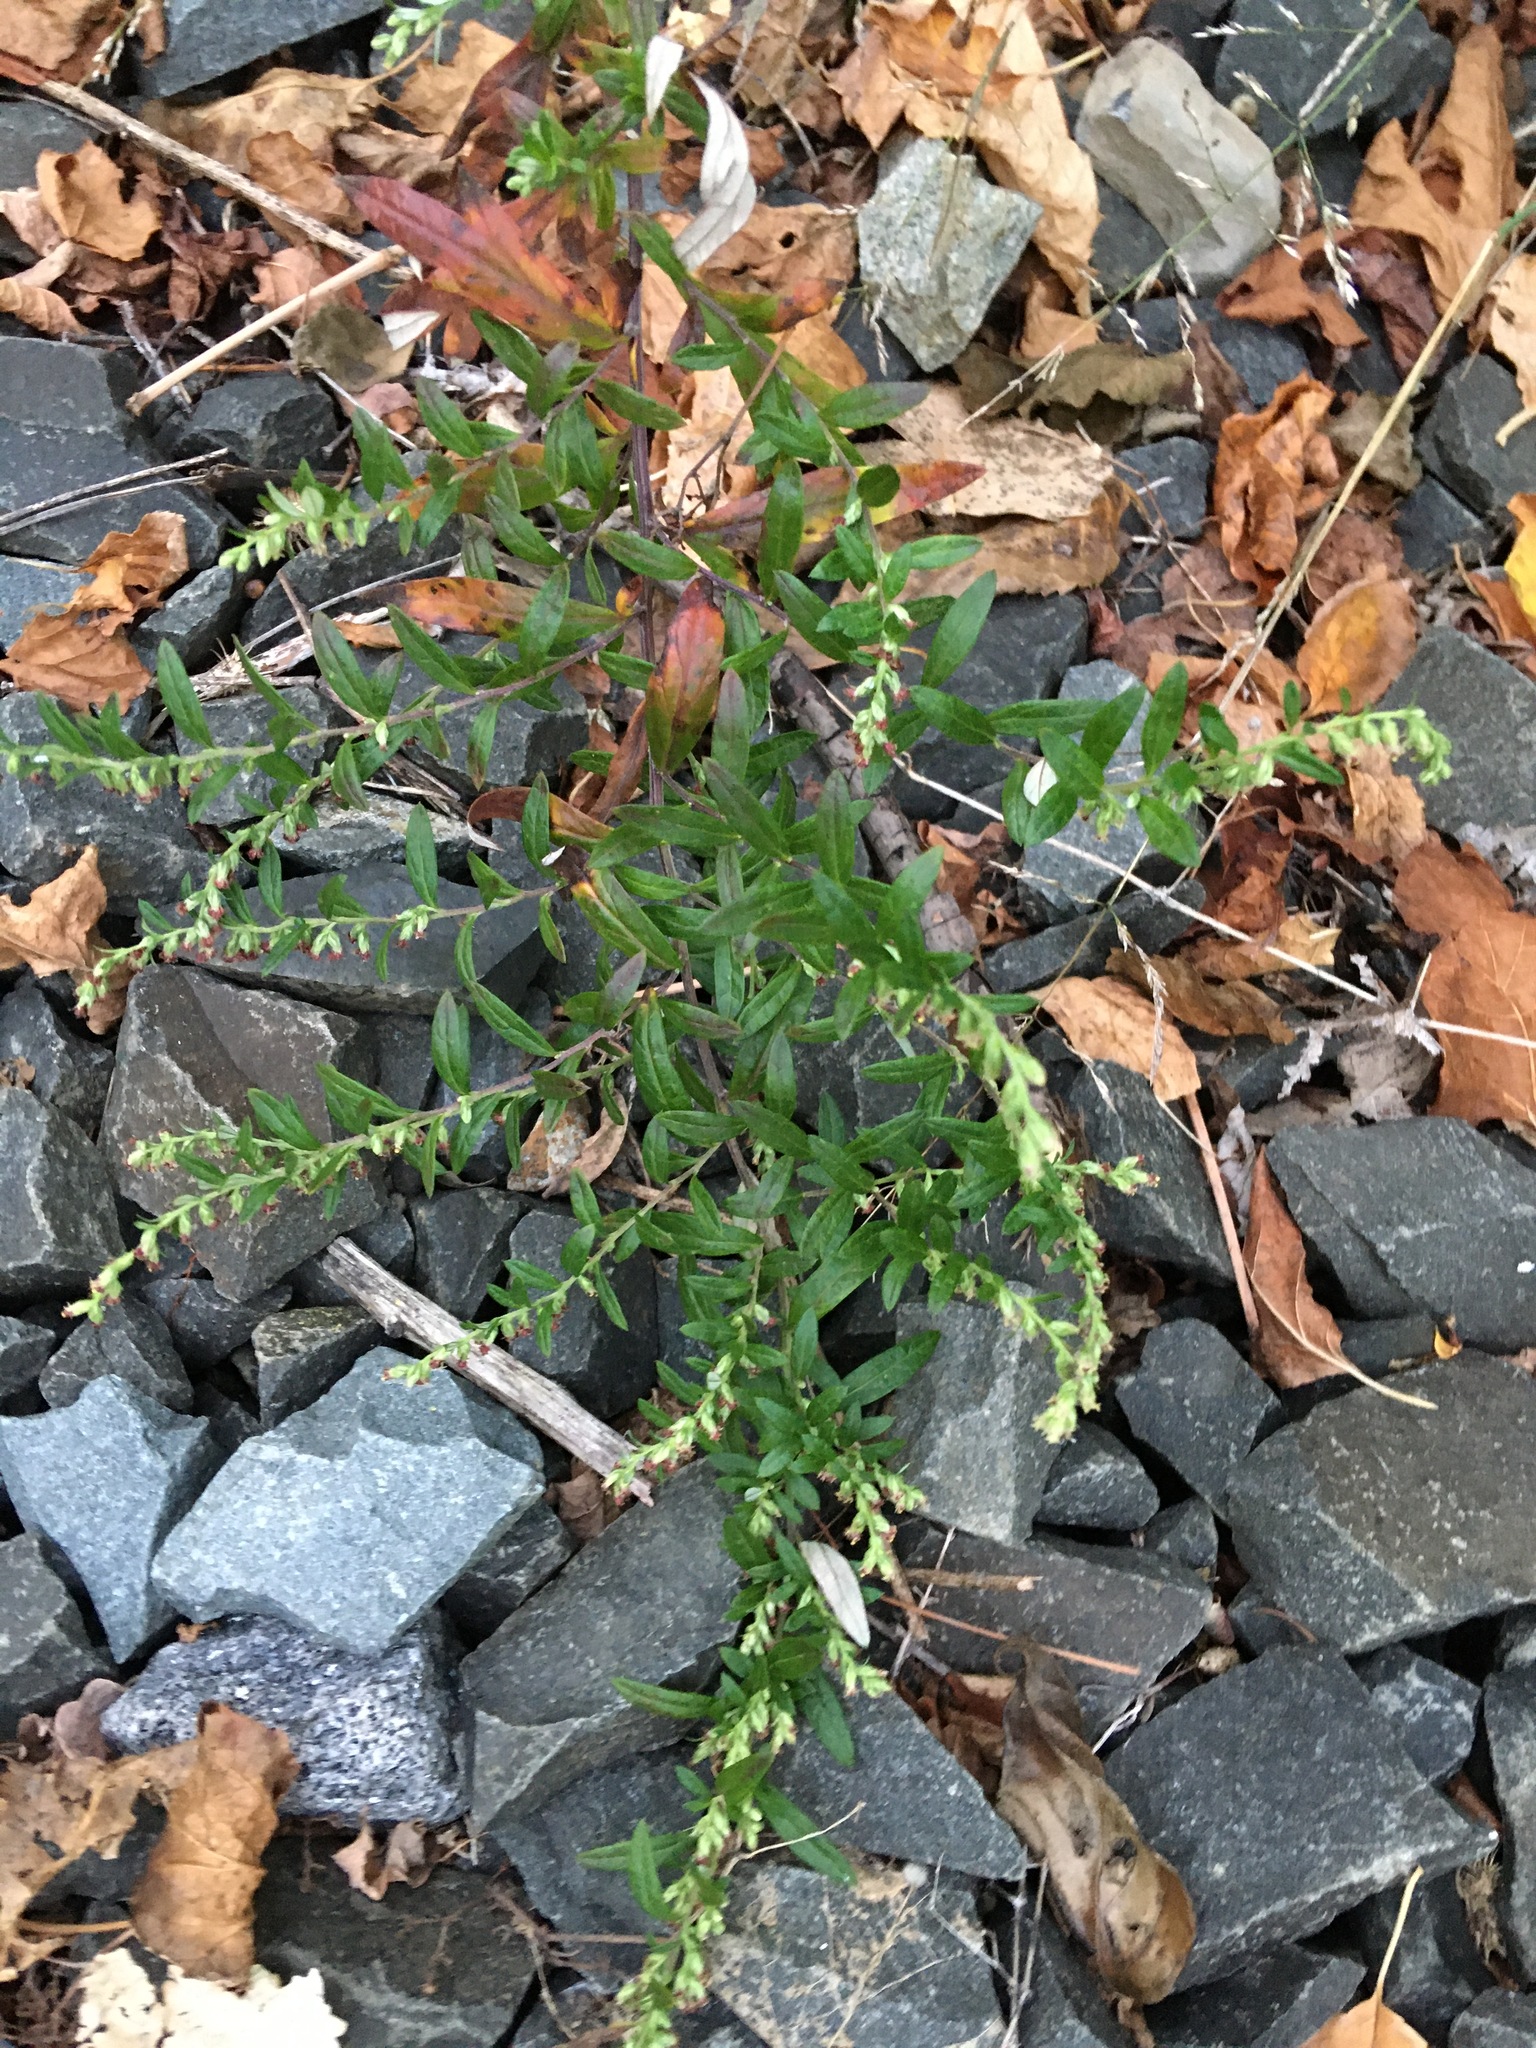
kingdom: Plantae
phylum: Tracheophyta
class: Magnoliopsida
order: Asterales
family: Asteraceae
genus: Artemisia
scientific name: Artemisia vulgaris
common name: Mugwort
